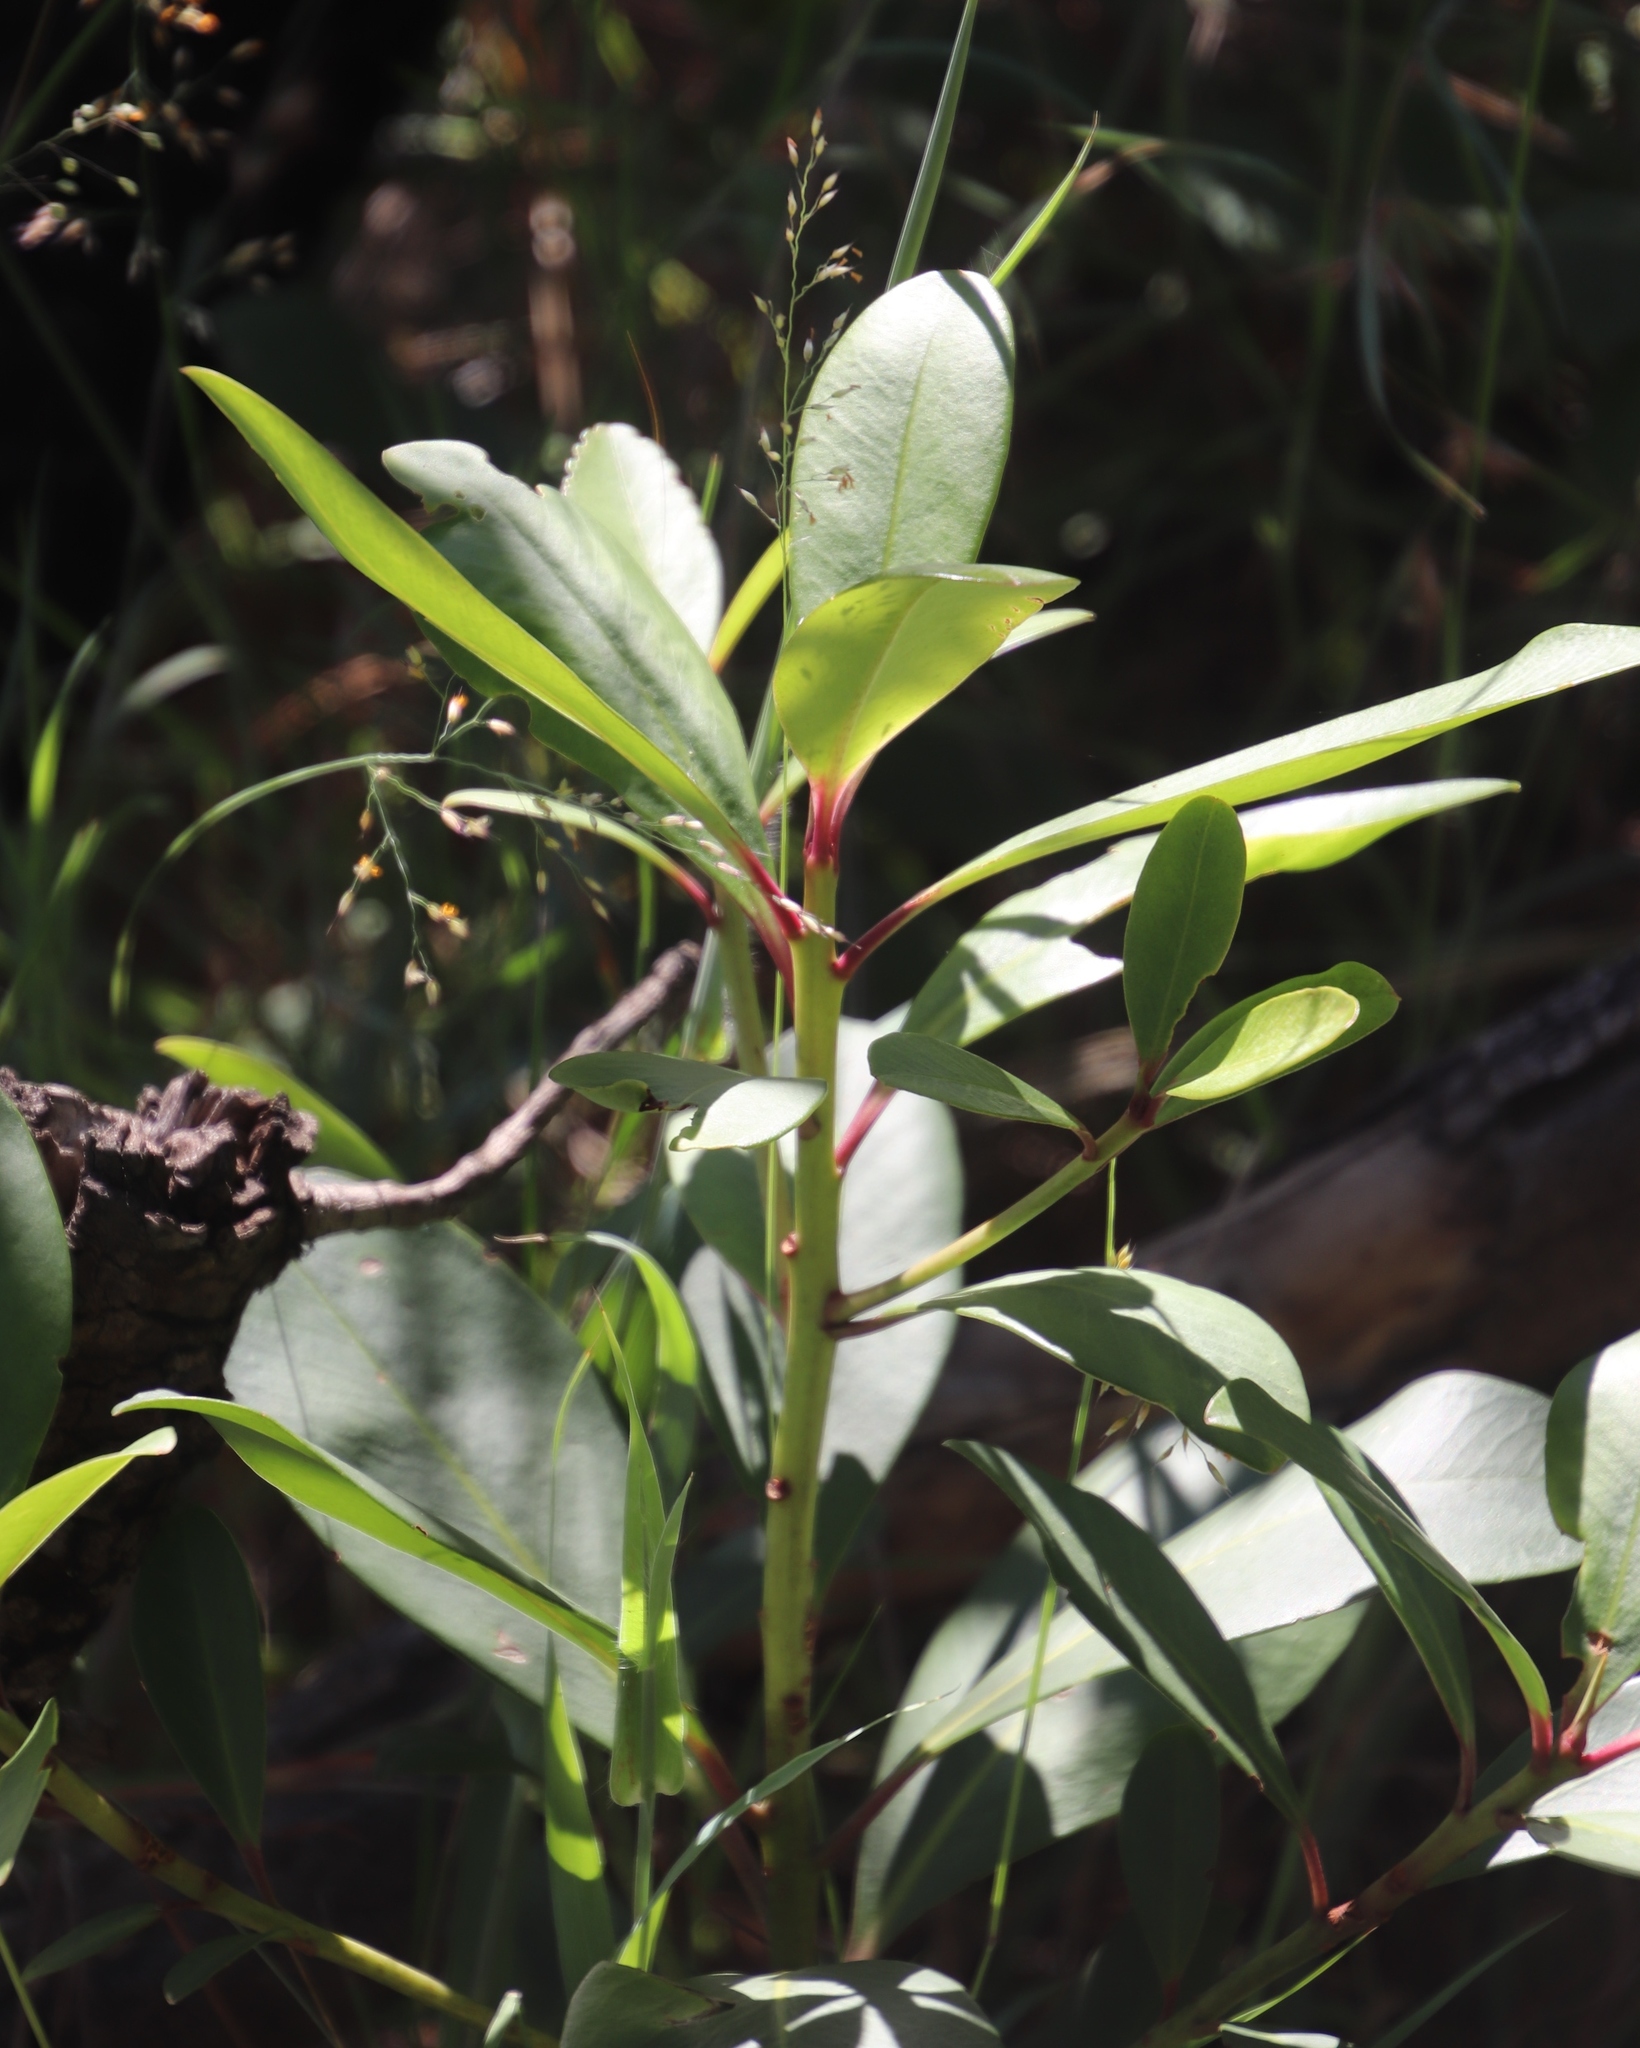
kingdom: Plantae
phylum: Tracheophyta
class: Magnoliopsida
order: Ericales
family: Primulaceae
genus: Myrsine
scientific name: Myrsine melanophloeos
